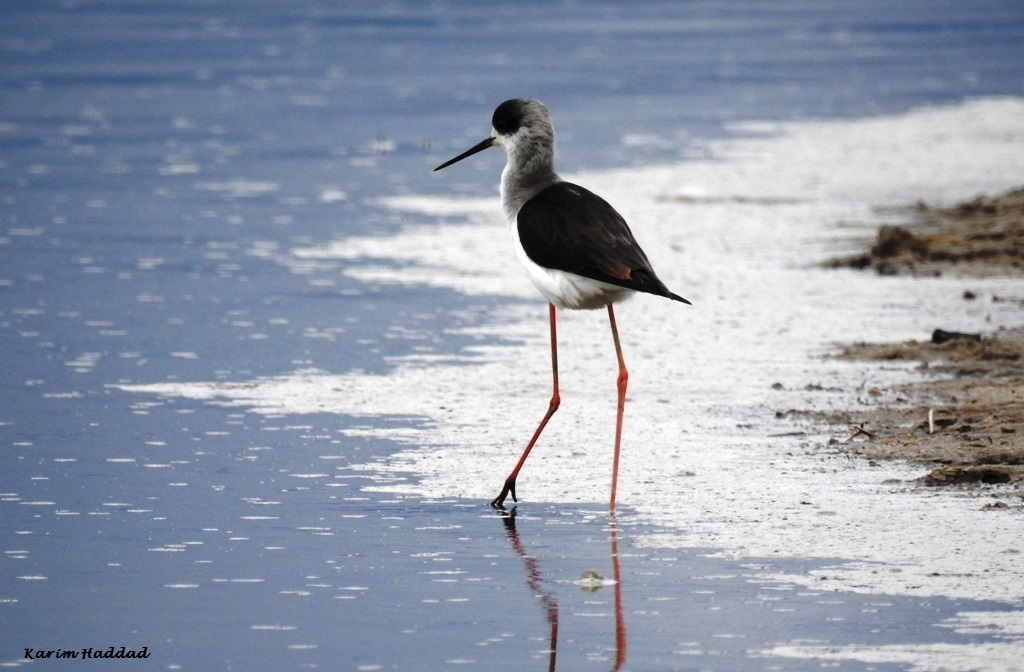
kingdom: Animalia
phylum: Chordata
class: Aves
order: Charadriiformes
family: Recurvirostridae
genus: Himantopus
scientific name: Himantopus himantopus
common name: Black-winged stilt
